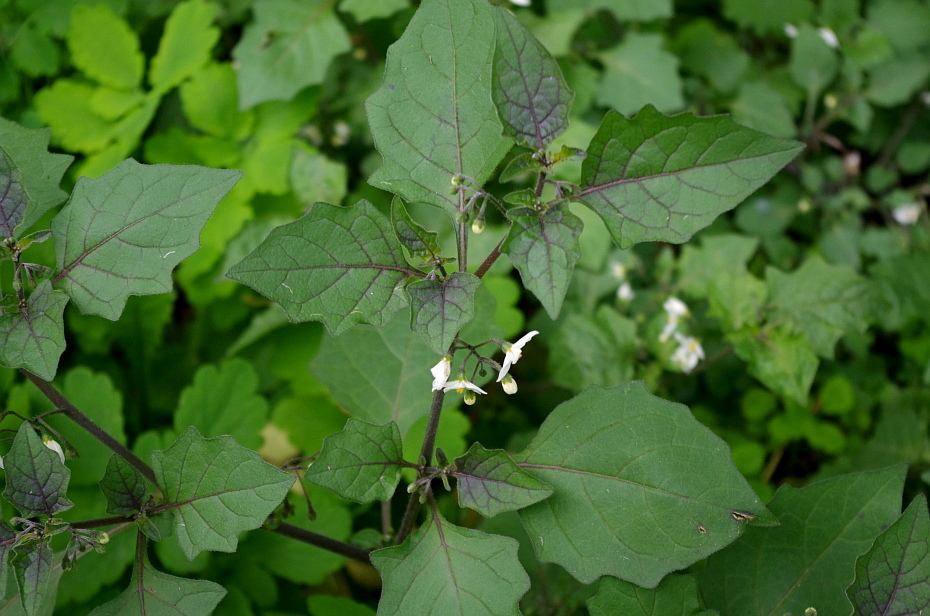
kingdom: Plantae
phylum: Tracheophyta
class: Magnoliopsida
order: Solanales
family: Solanaceae
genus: Solanum
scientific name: Solanum nigrum
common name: Black nightshade
